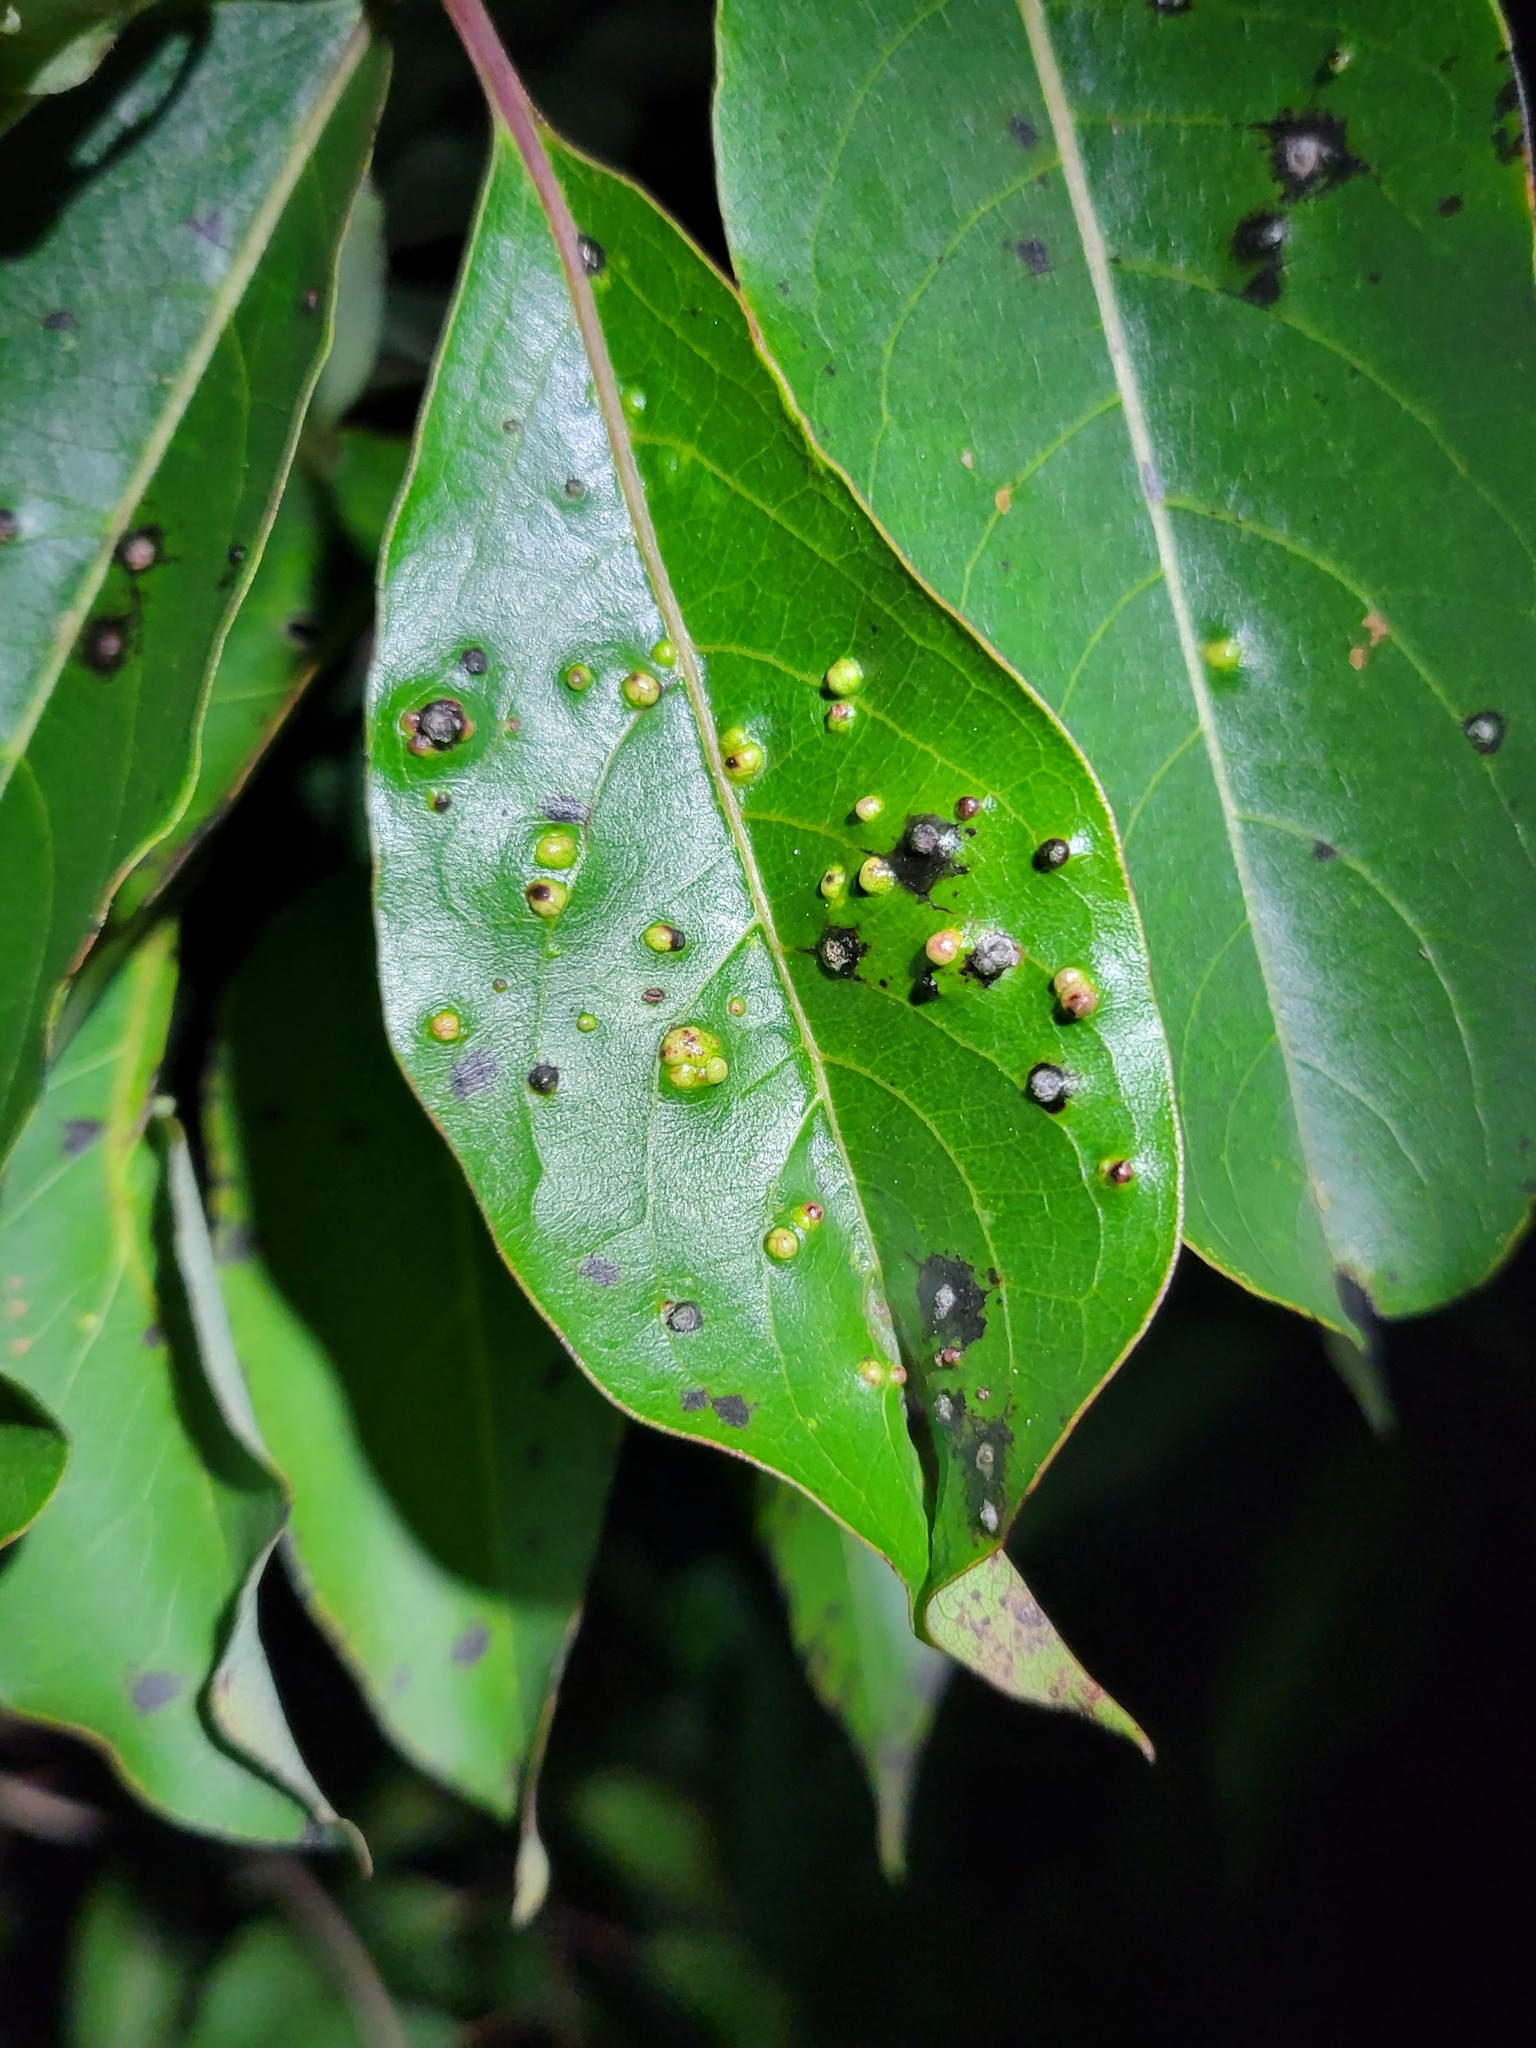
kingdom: Animalia
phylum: Arthropoda
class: Arachnida
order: Trombidiformes
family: Eriophyidae
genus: Aceria
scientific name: Aceria
